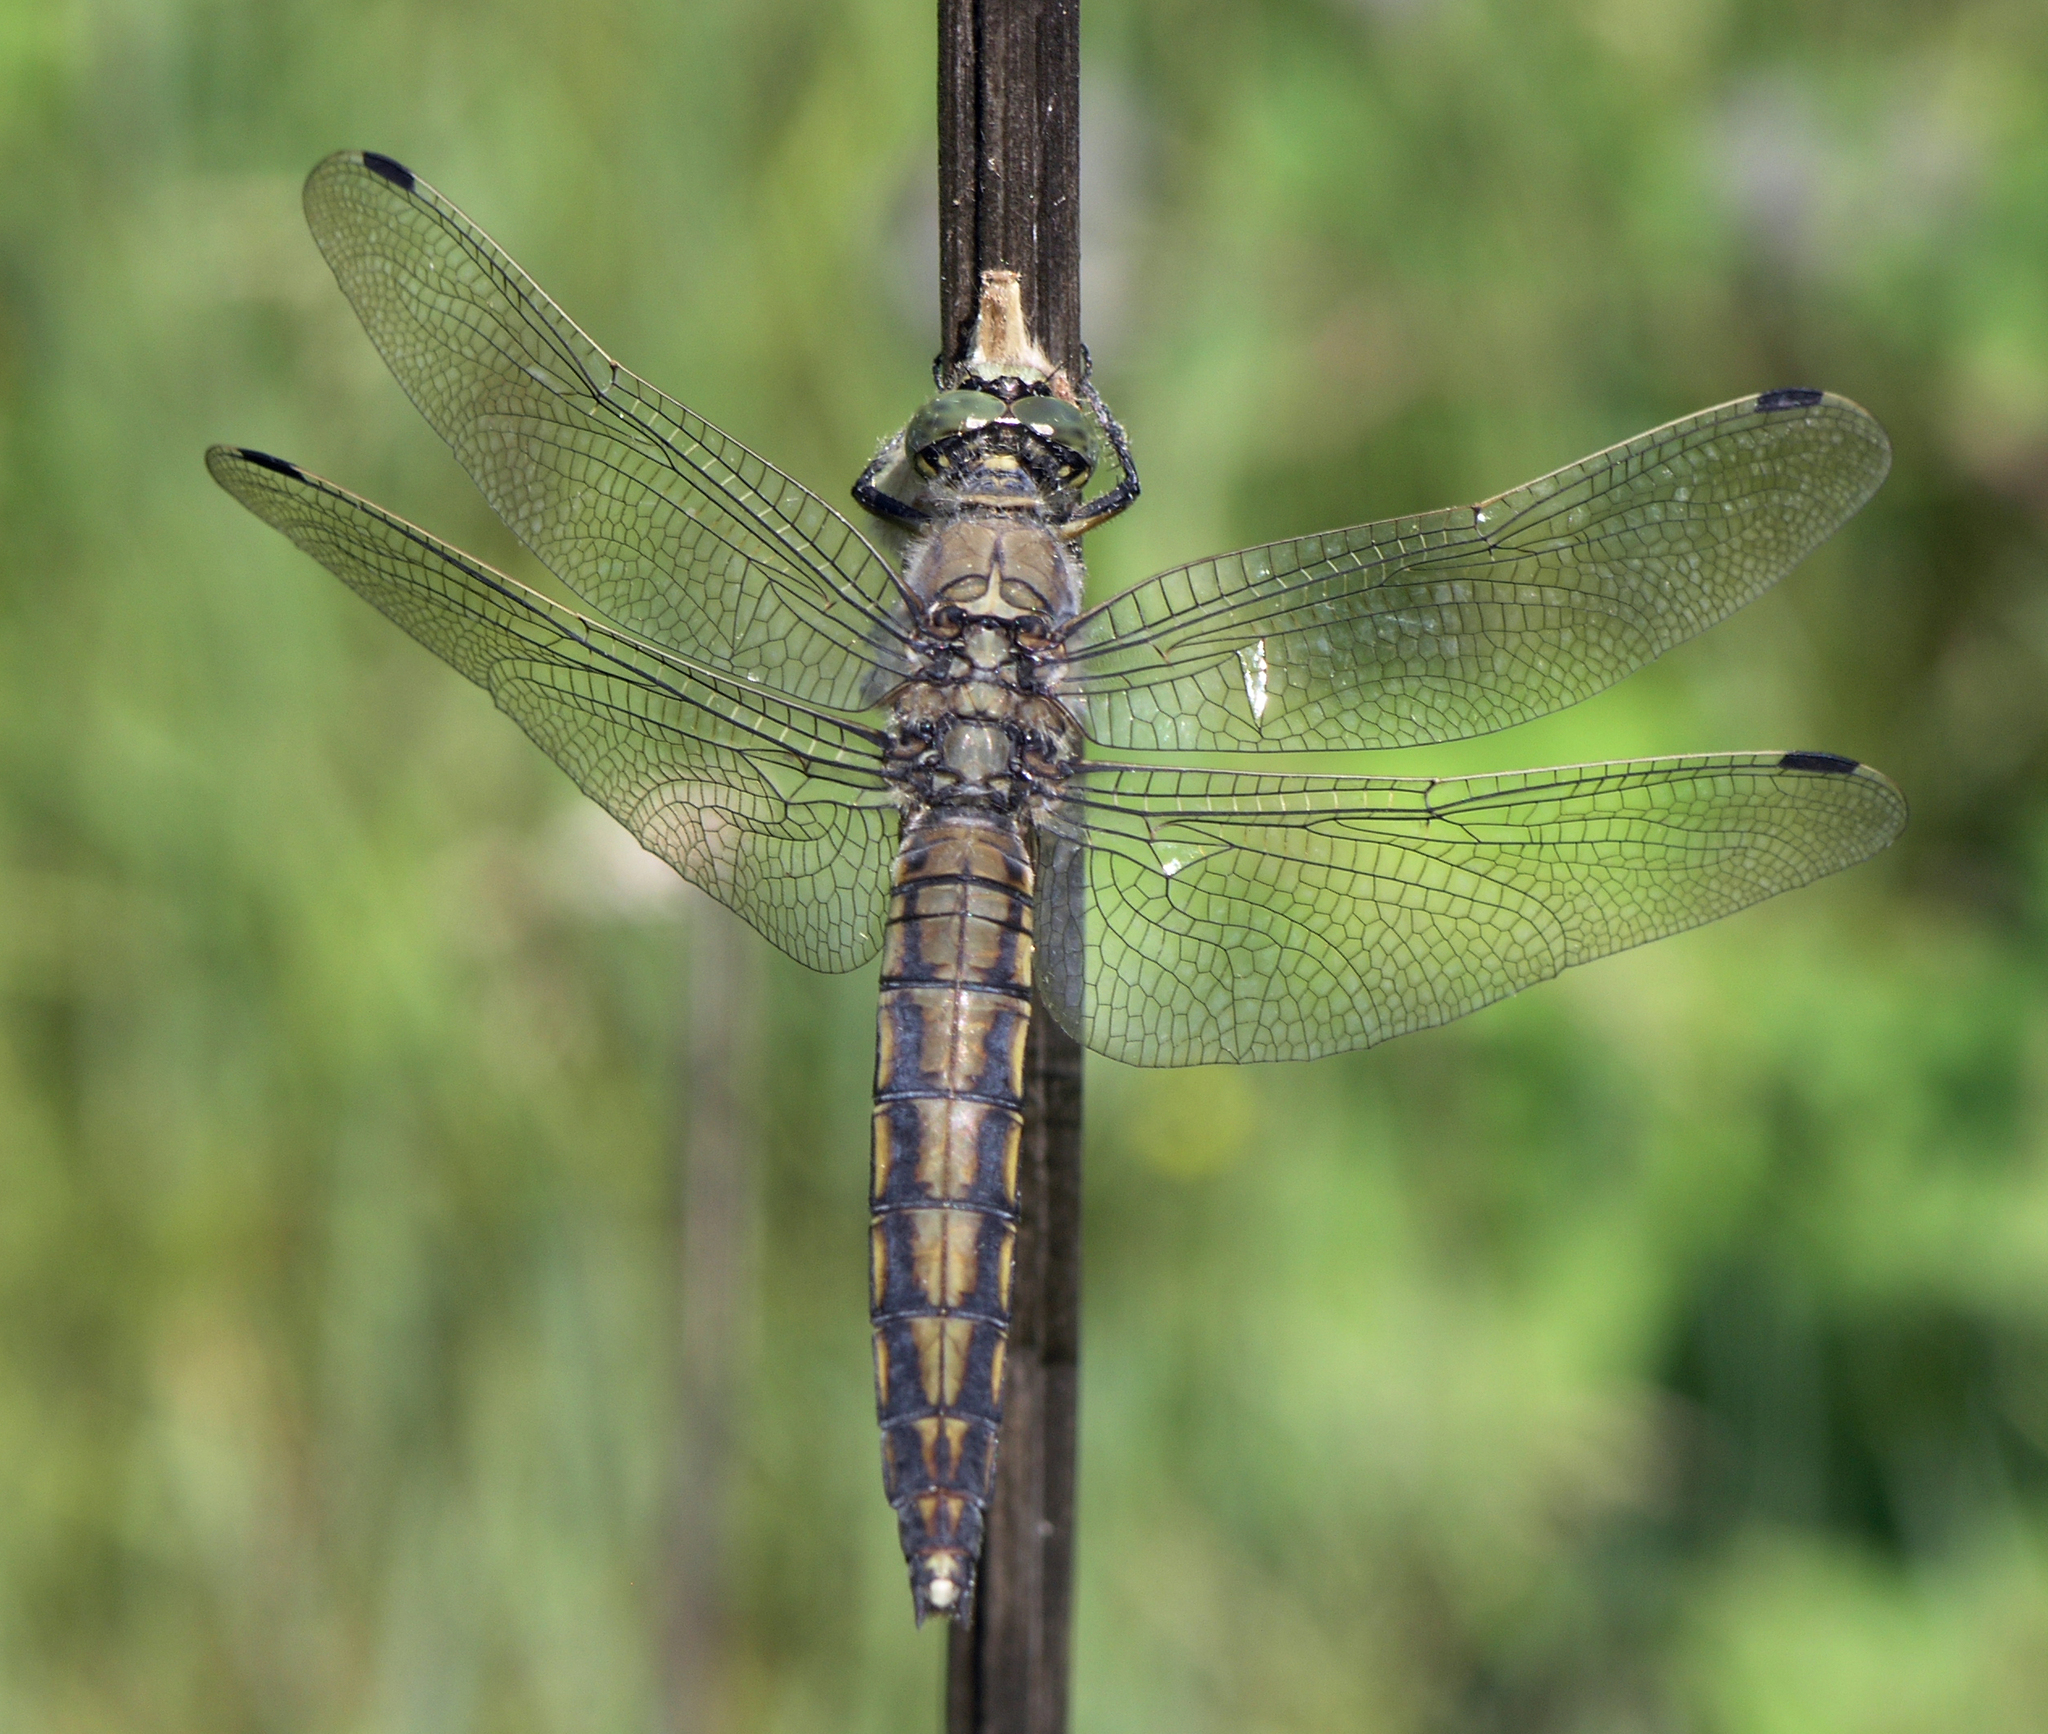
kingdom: Animalia
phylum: Arthropoda
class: Insecta
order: Odonata
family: Libellulidae
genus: Orthetrum
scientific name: Orthetrum cancellatum
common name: Black-tailed skimmer
